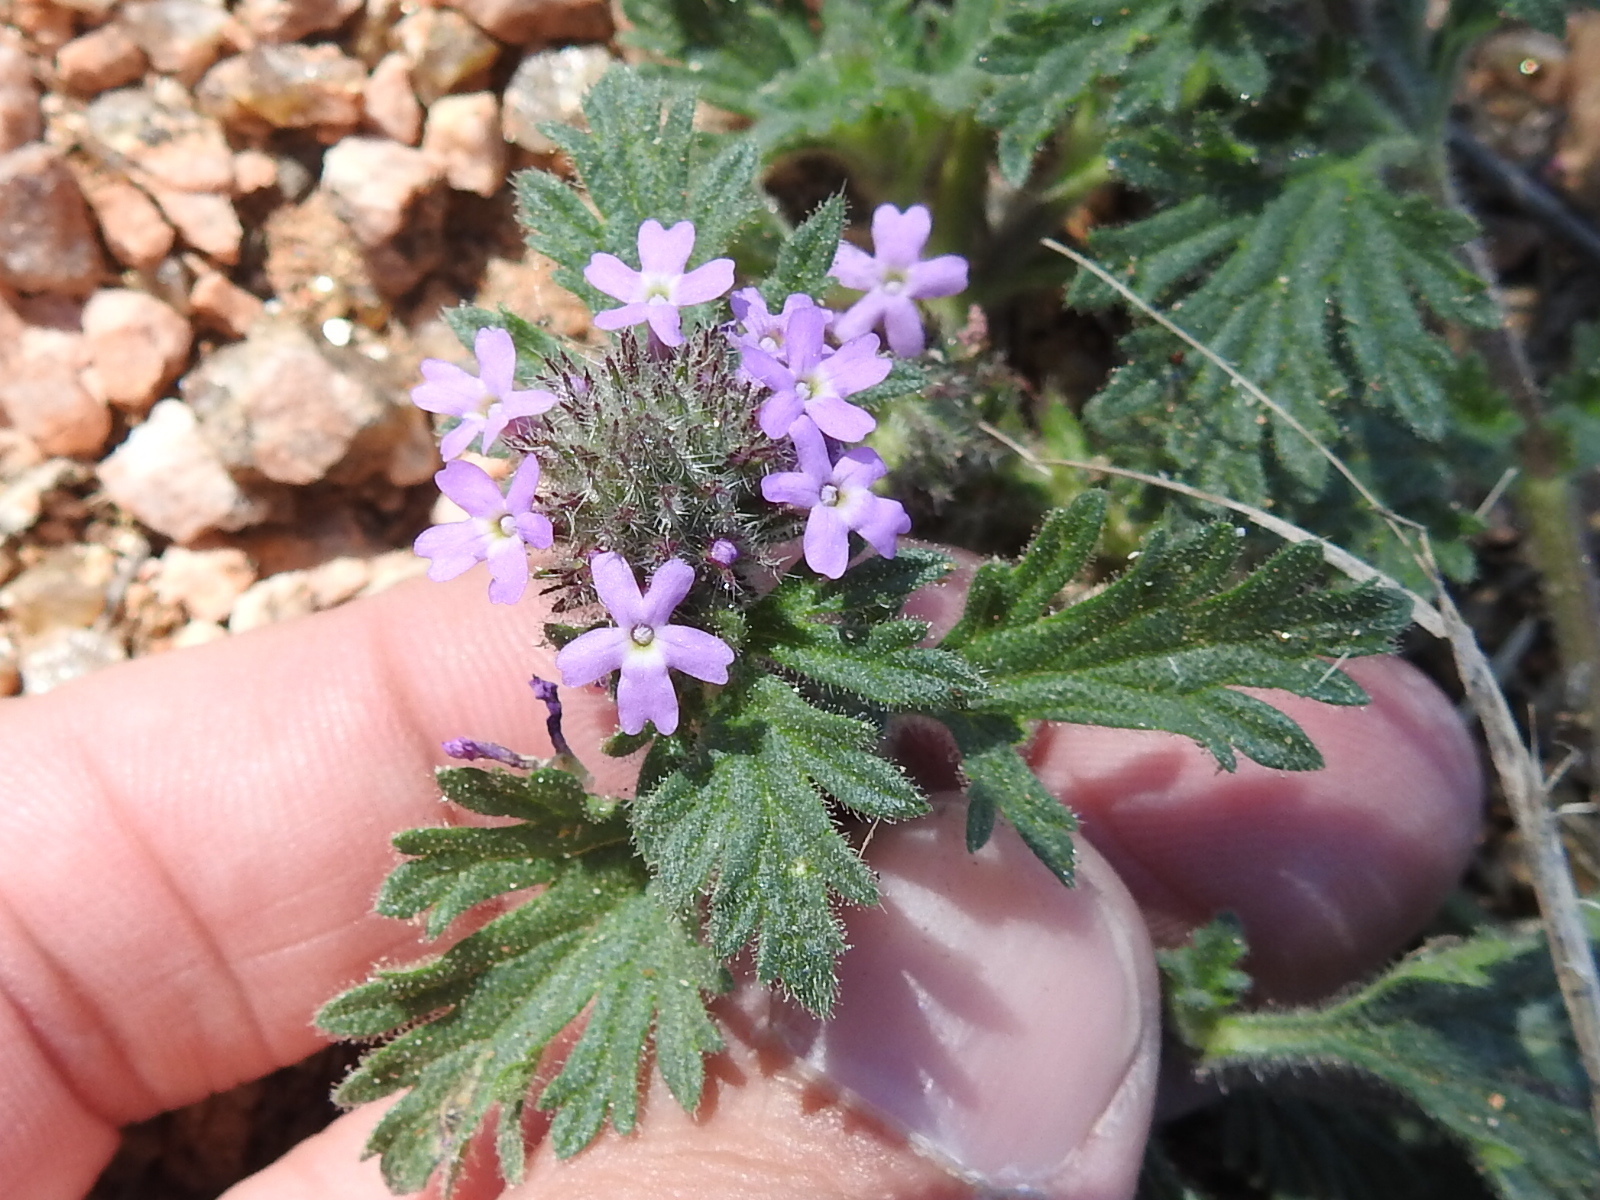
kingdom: Plantae
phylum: Tracheophyta
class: Magnoliopsida
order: Lamiales
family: Verbenaceae
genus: Verbena
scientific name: Verbena pumila
